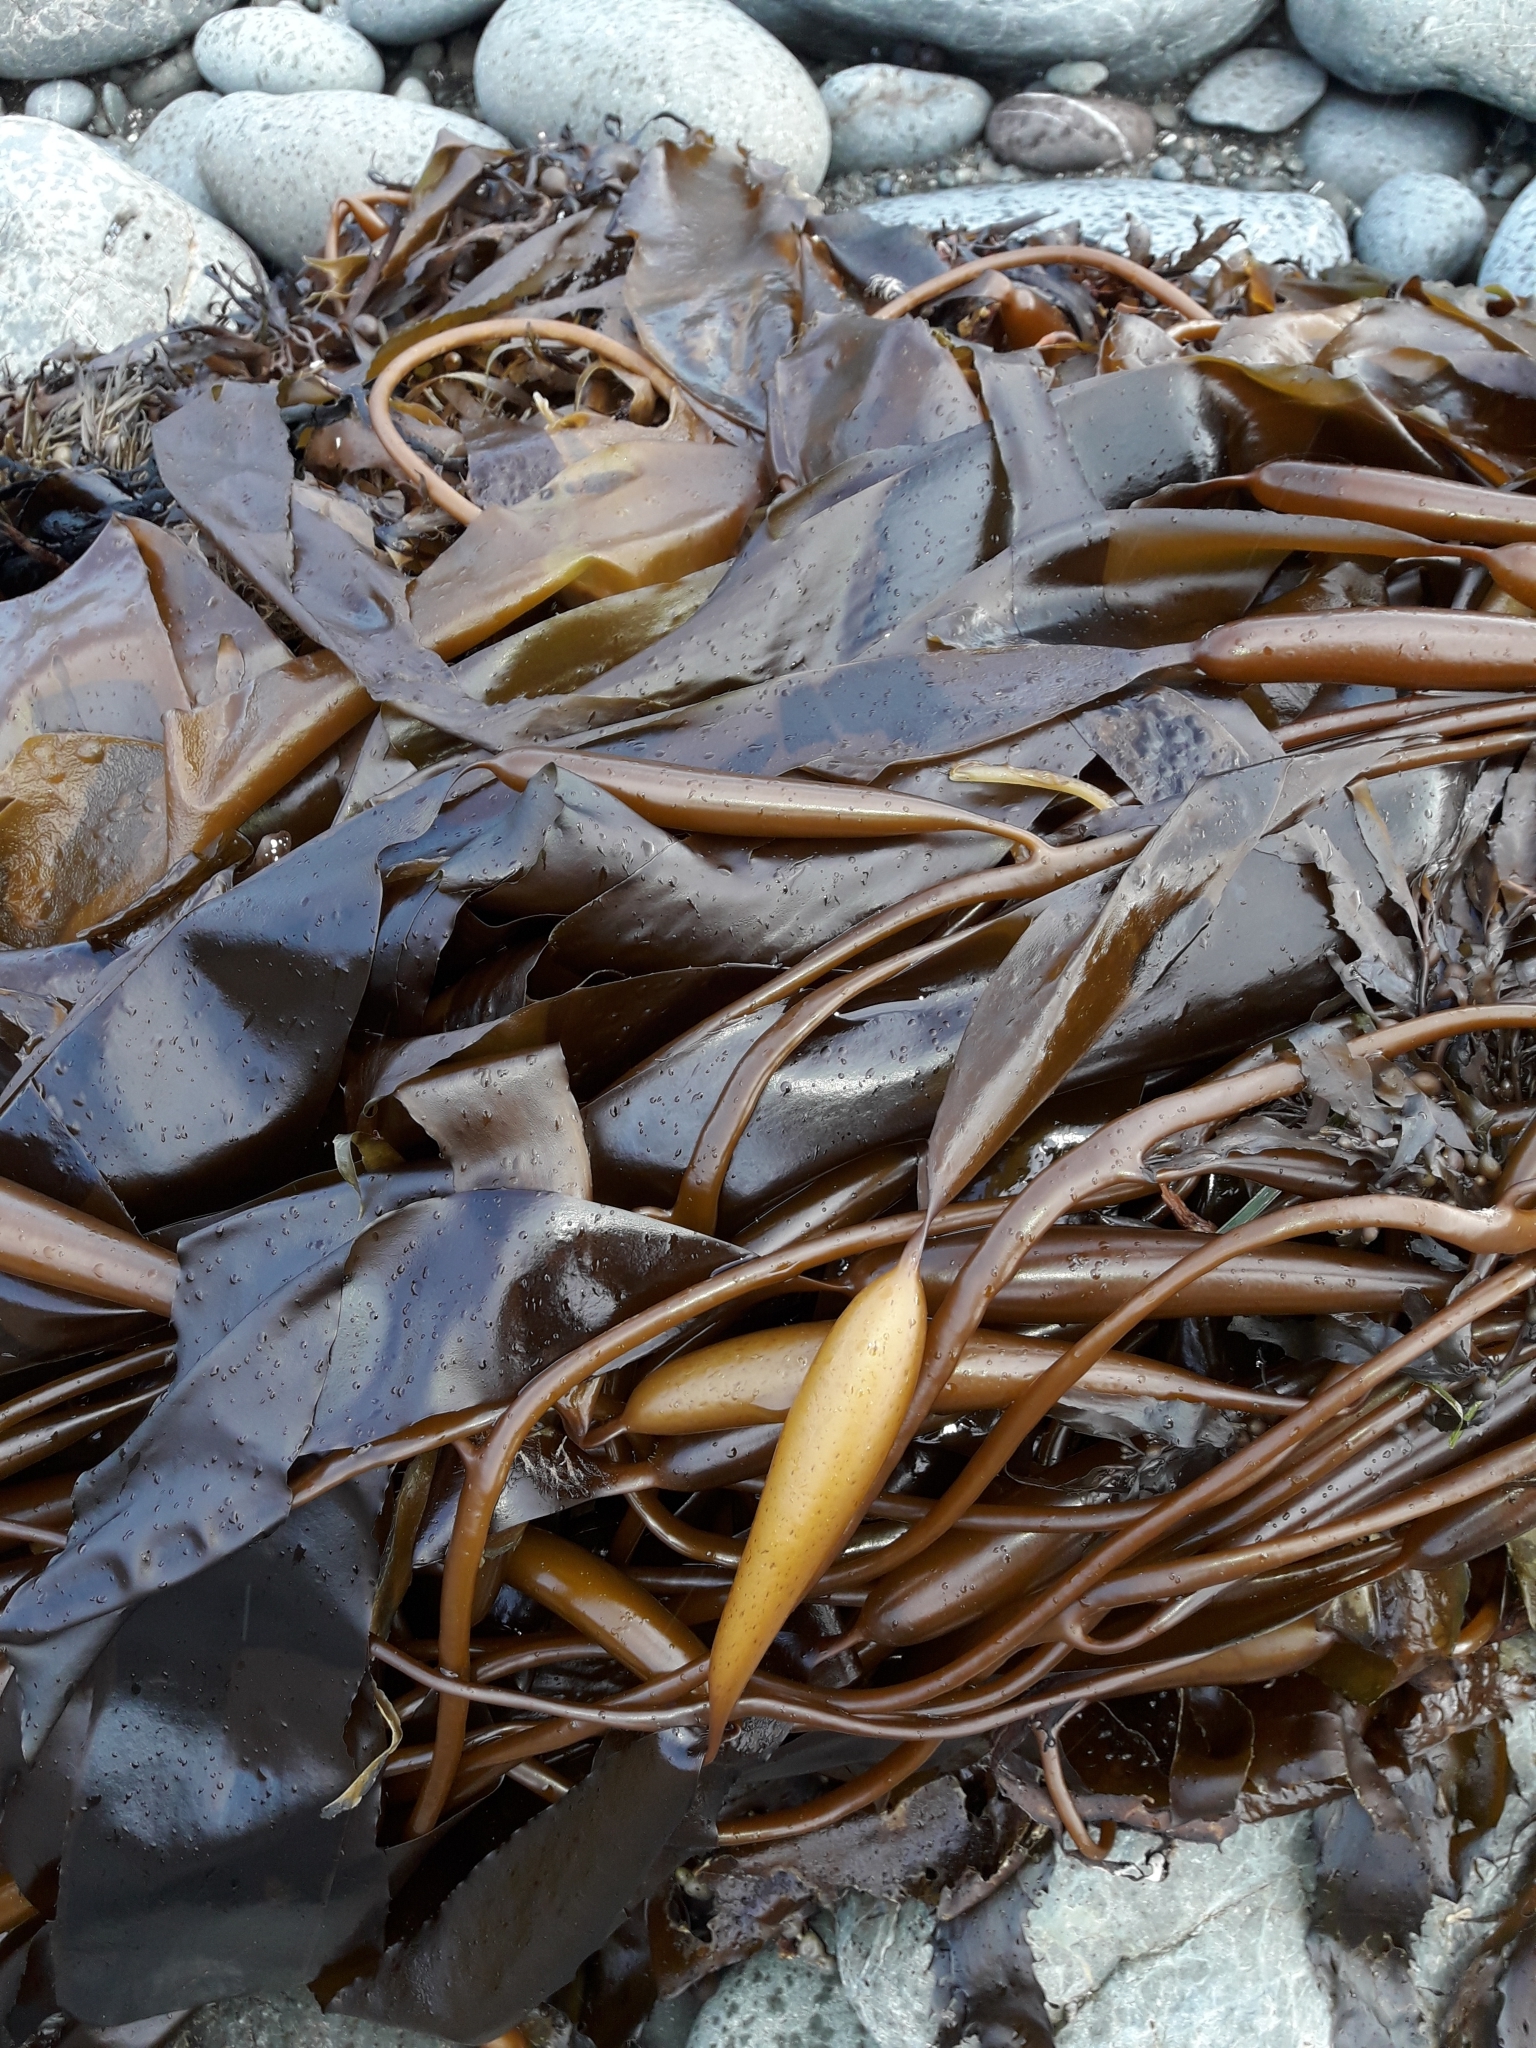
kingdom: Chromista
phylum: Ochrophyta
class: Phaeophyceae
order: Laminariales
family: Laminariaceae
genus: Macrocystis
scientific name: Macrocystis pyrifera
